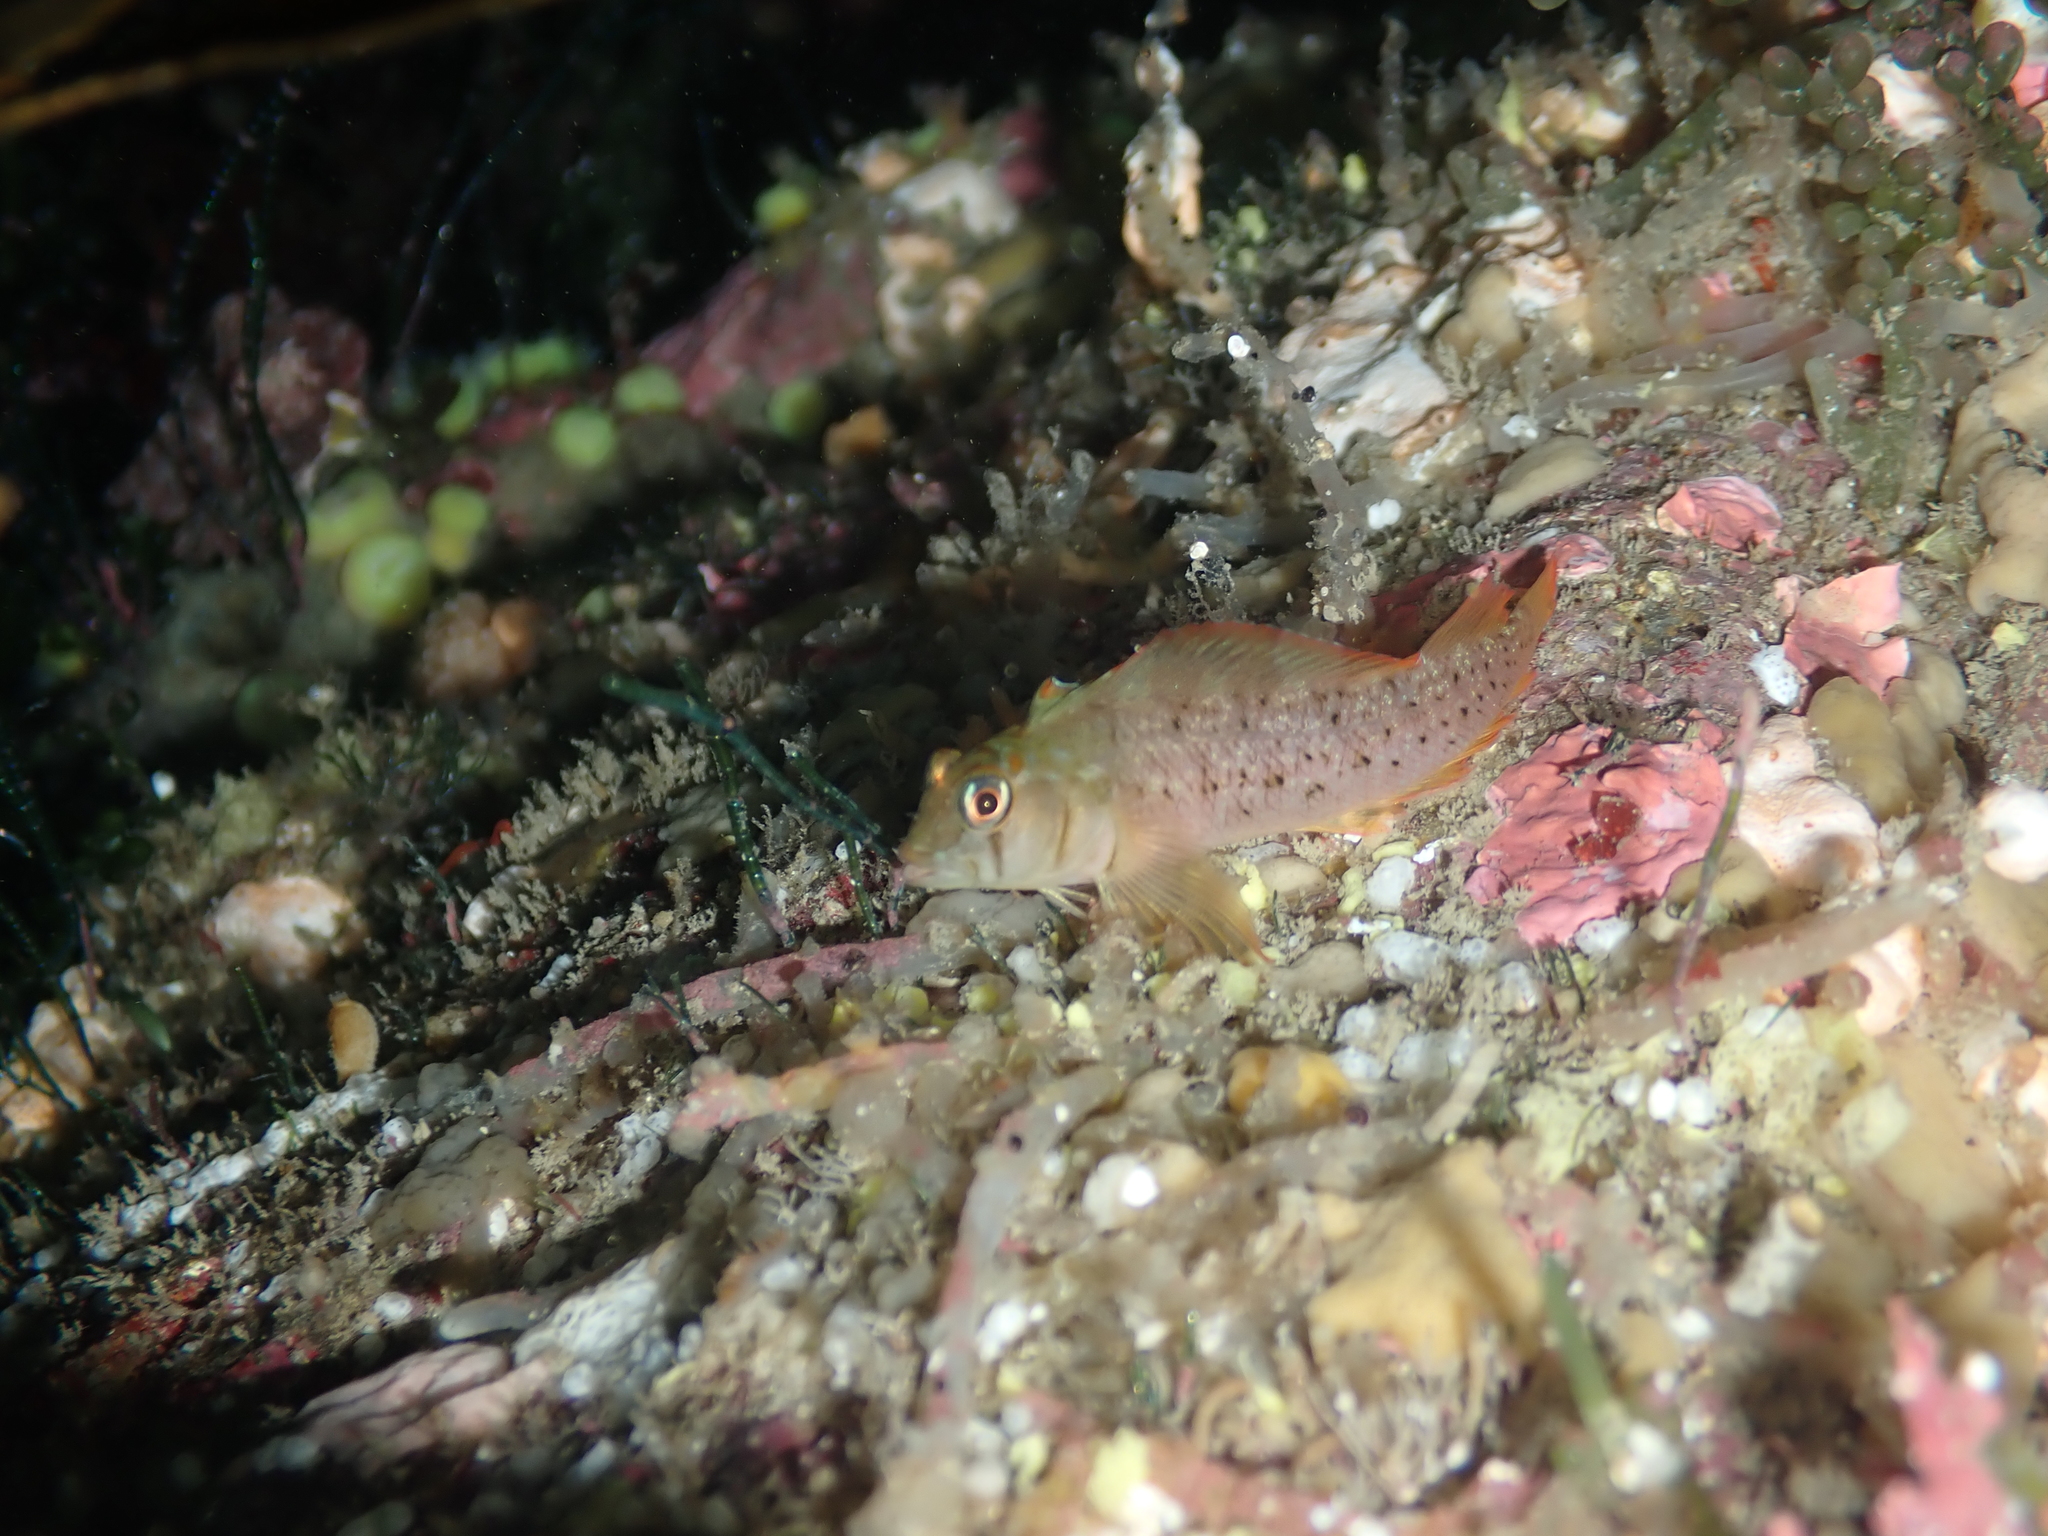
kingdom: Animalia
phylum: Chordata
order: Perciformes
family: Tripterygiidae
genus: Notoclinops
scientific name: Notoclinops yaldwyni
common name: Yaldwyn's triplefin
